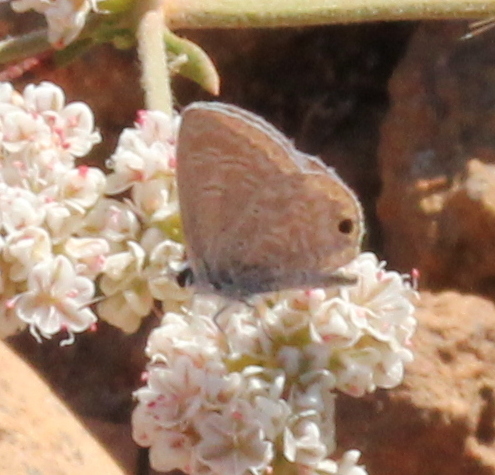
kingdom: Animalia
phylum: Arthropoda
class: Insecta
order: Lepidoptera
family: Lycaenidae
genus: Hemiargus
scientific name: Hemiargus ceraunus
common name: Ceraunus blue
